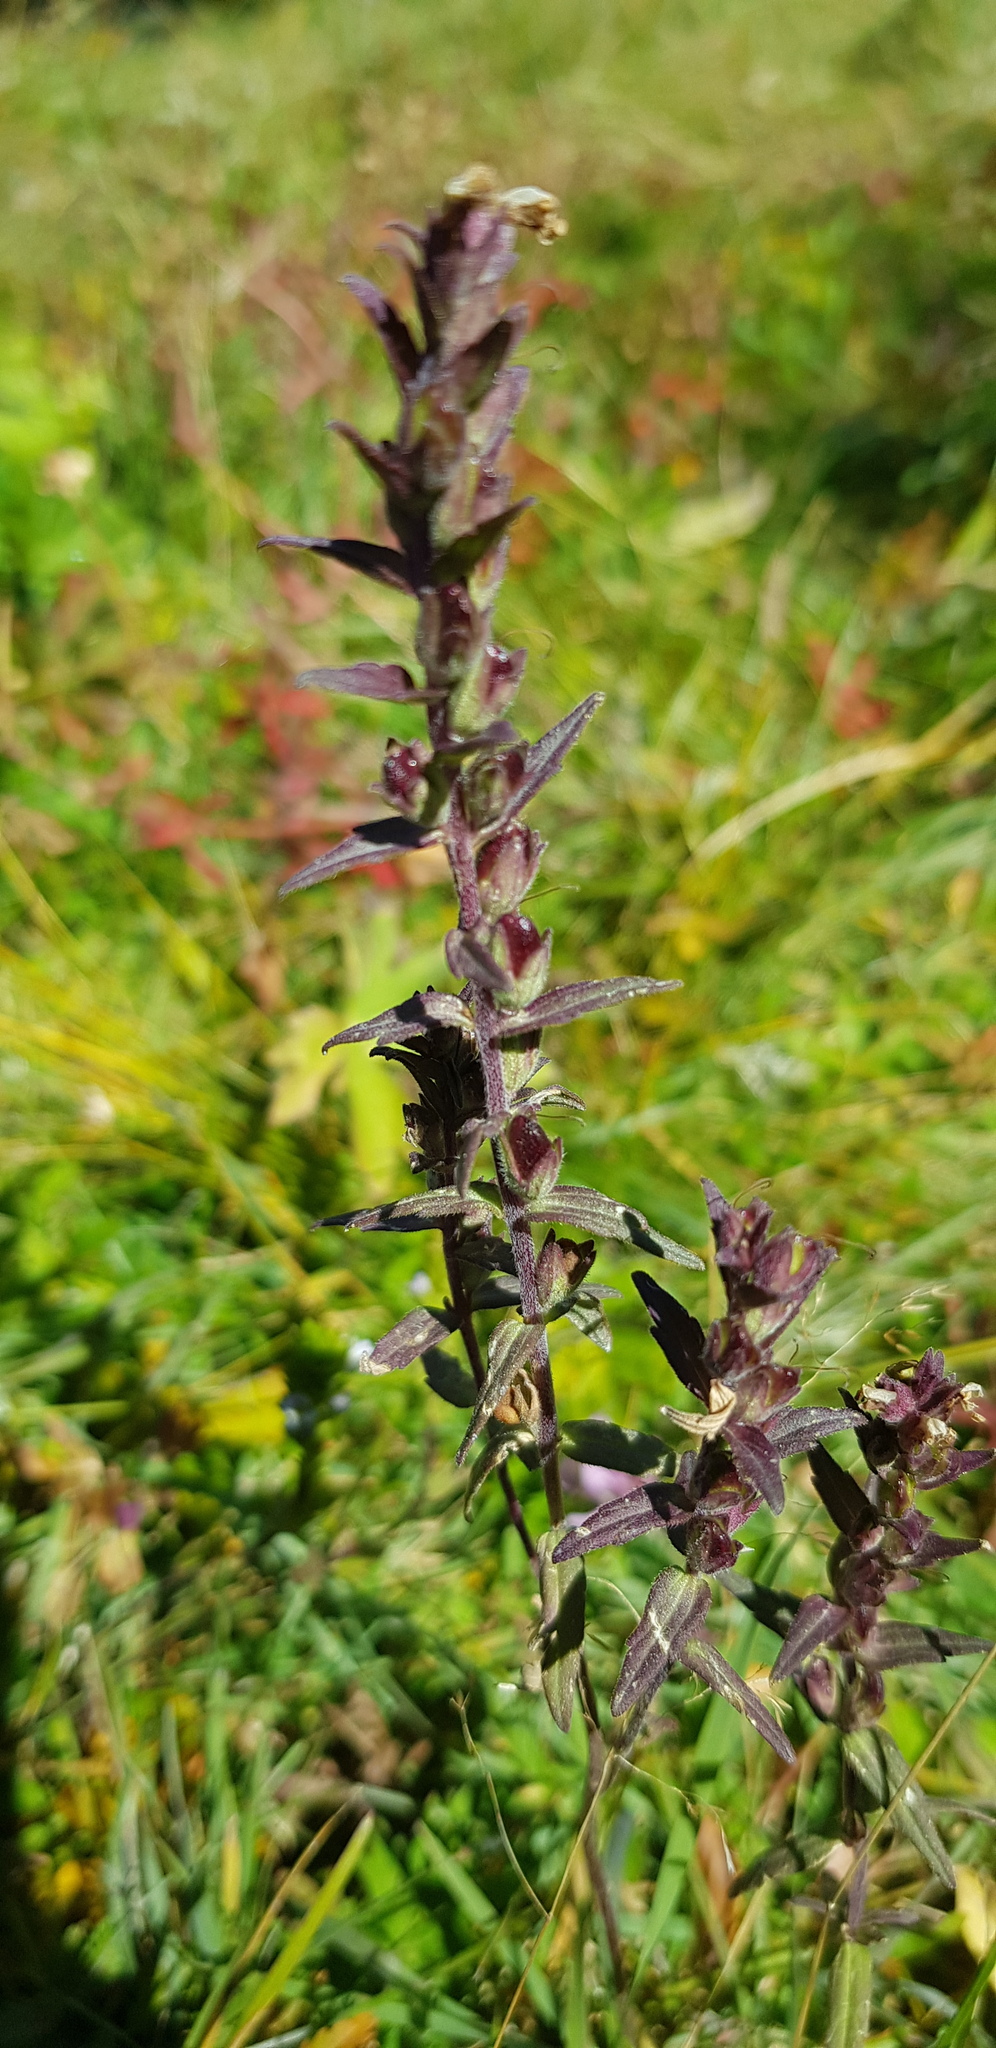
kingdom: Plantae
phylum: Tracheophyta
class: Magnoliopsida
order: Lamiales
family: Orobanchaceae
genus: Odontites
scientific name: Odontites vulgaris
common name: Broomrape
